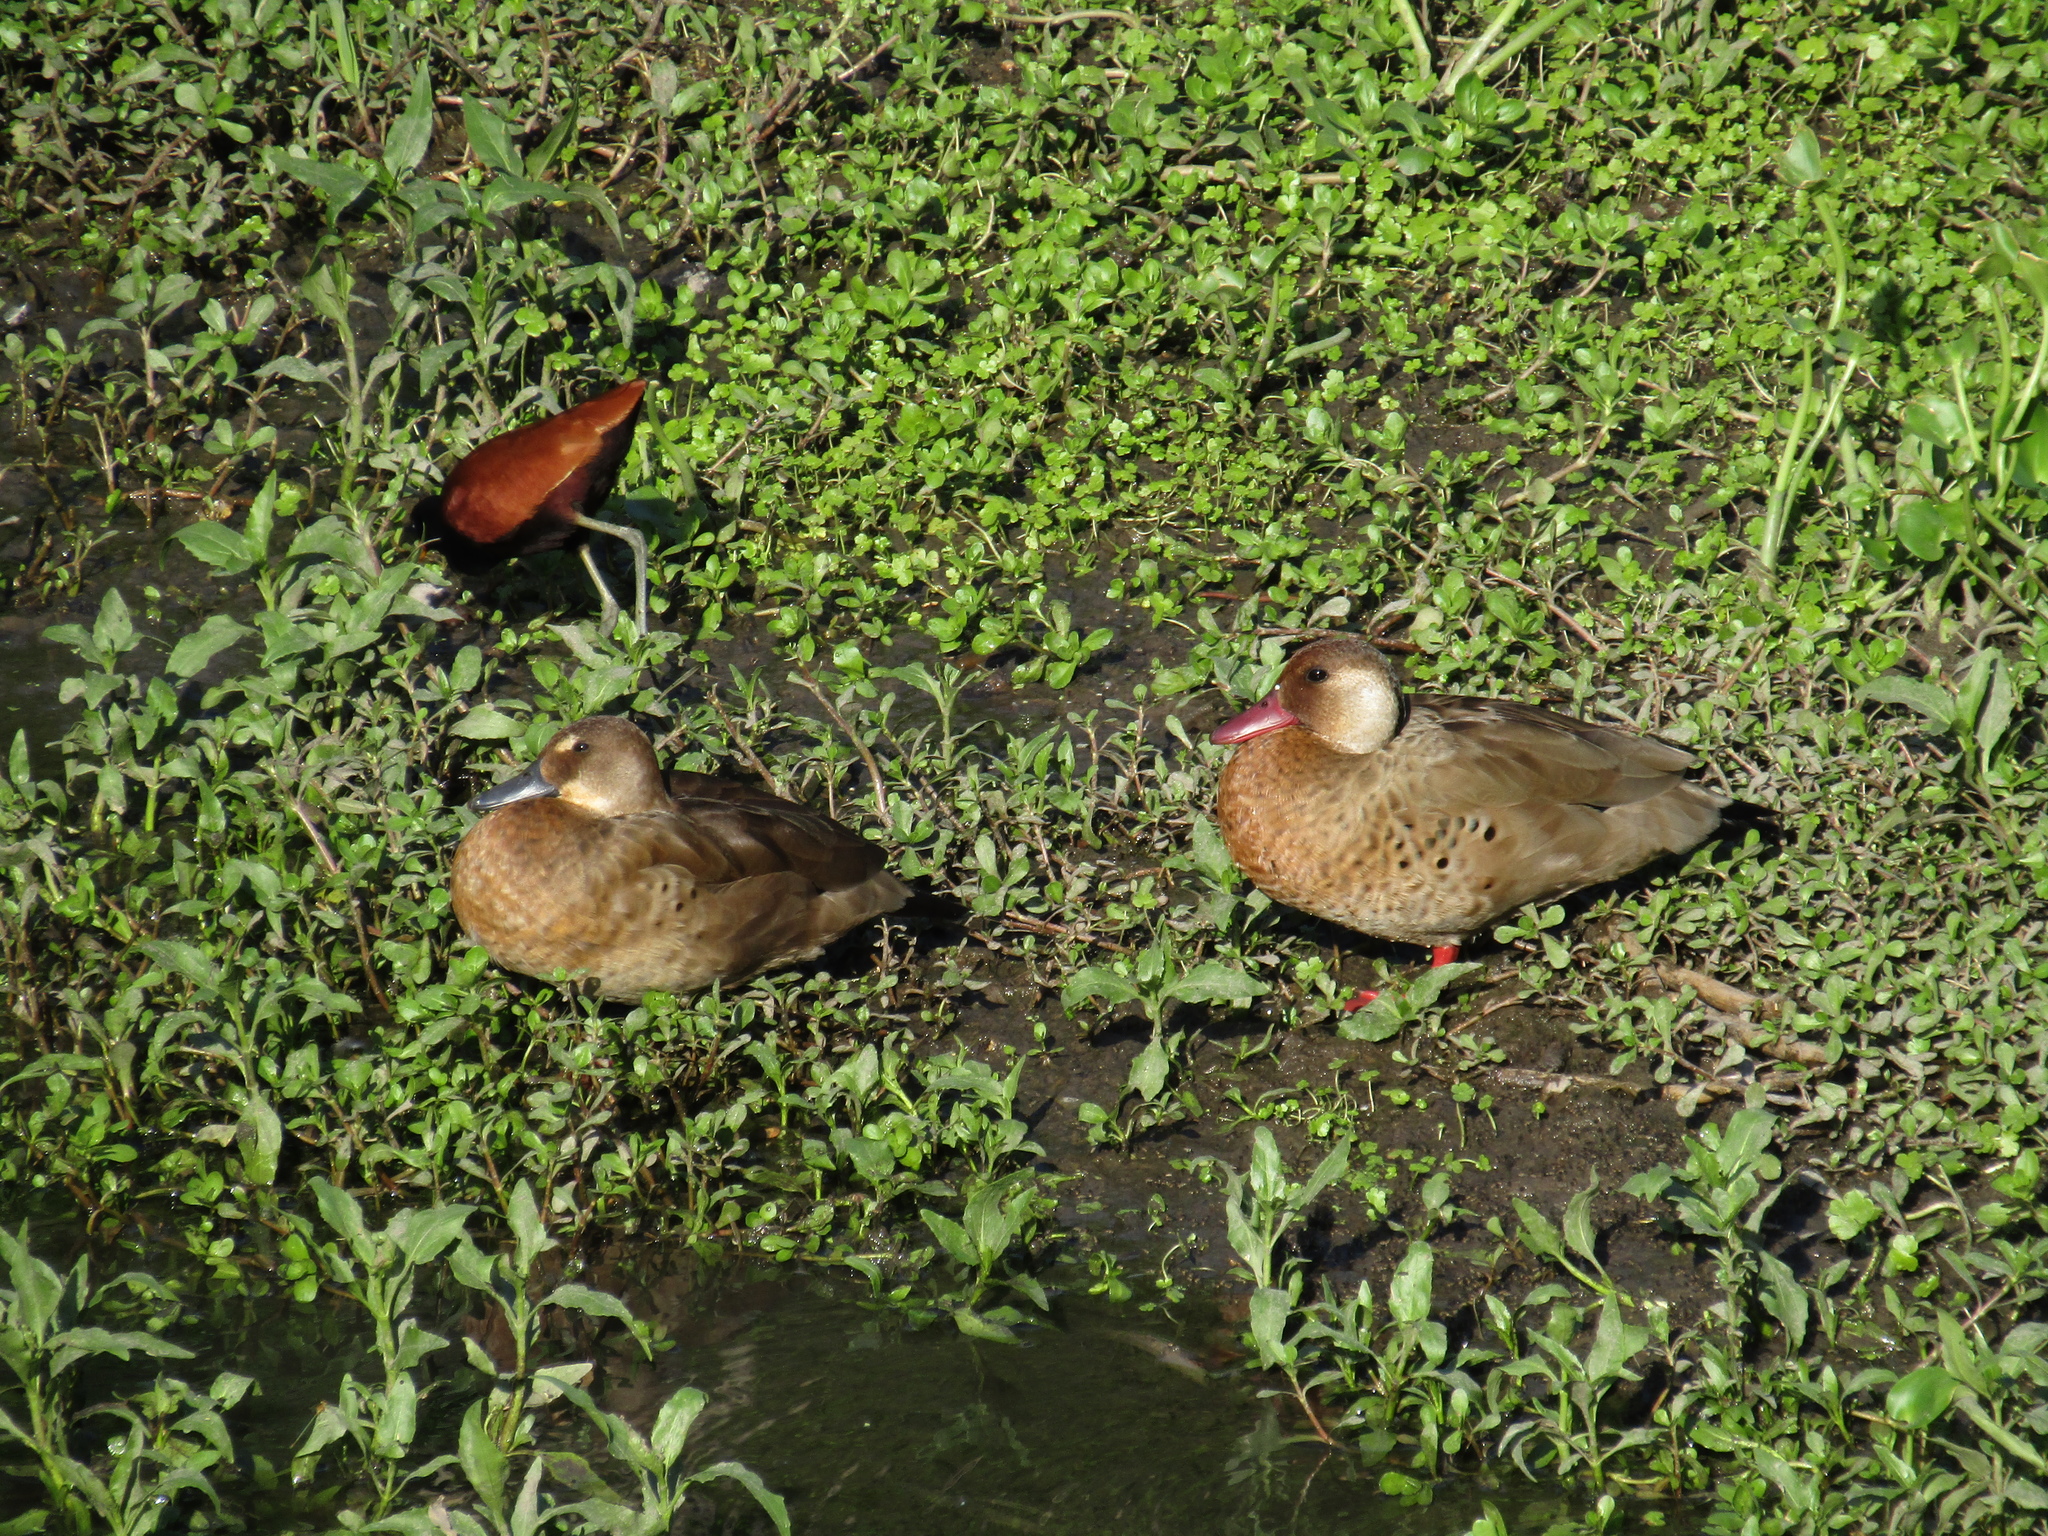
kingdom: Animalia
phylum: Chordata
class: Aves
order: Anseriformes
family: Anatidae
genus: Amazonetta
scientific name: Amazonetta brasiliensis
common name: Brazilian teal
